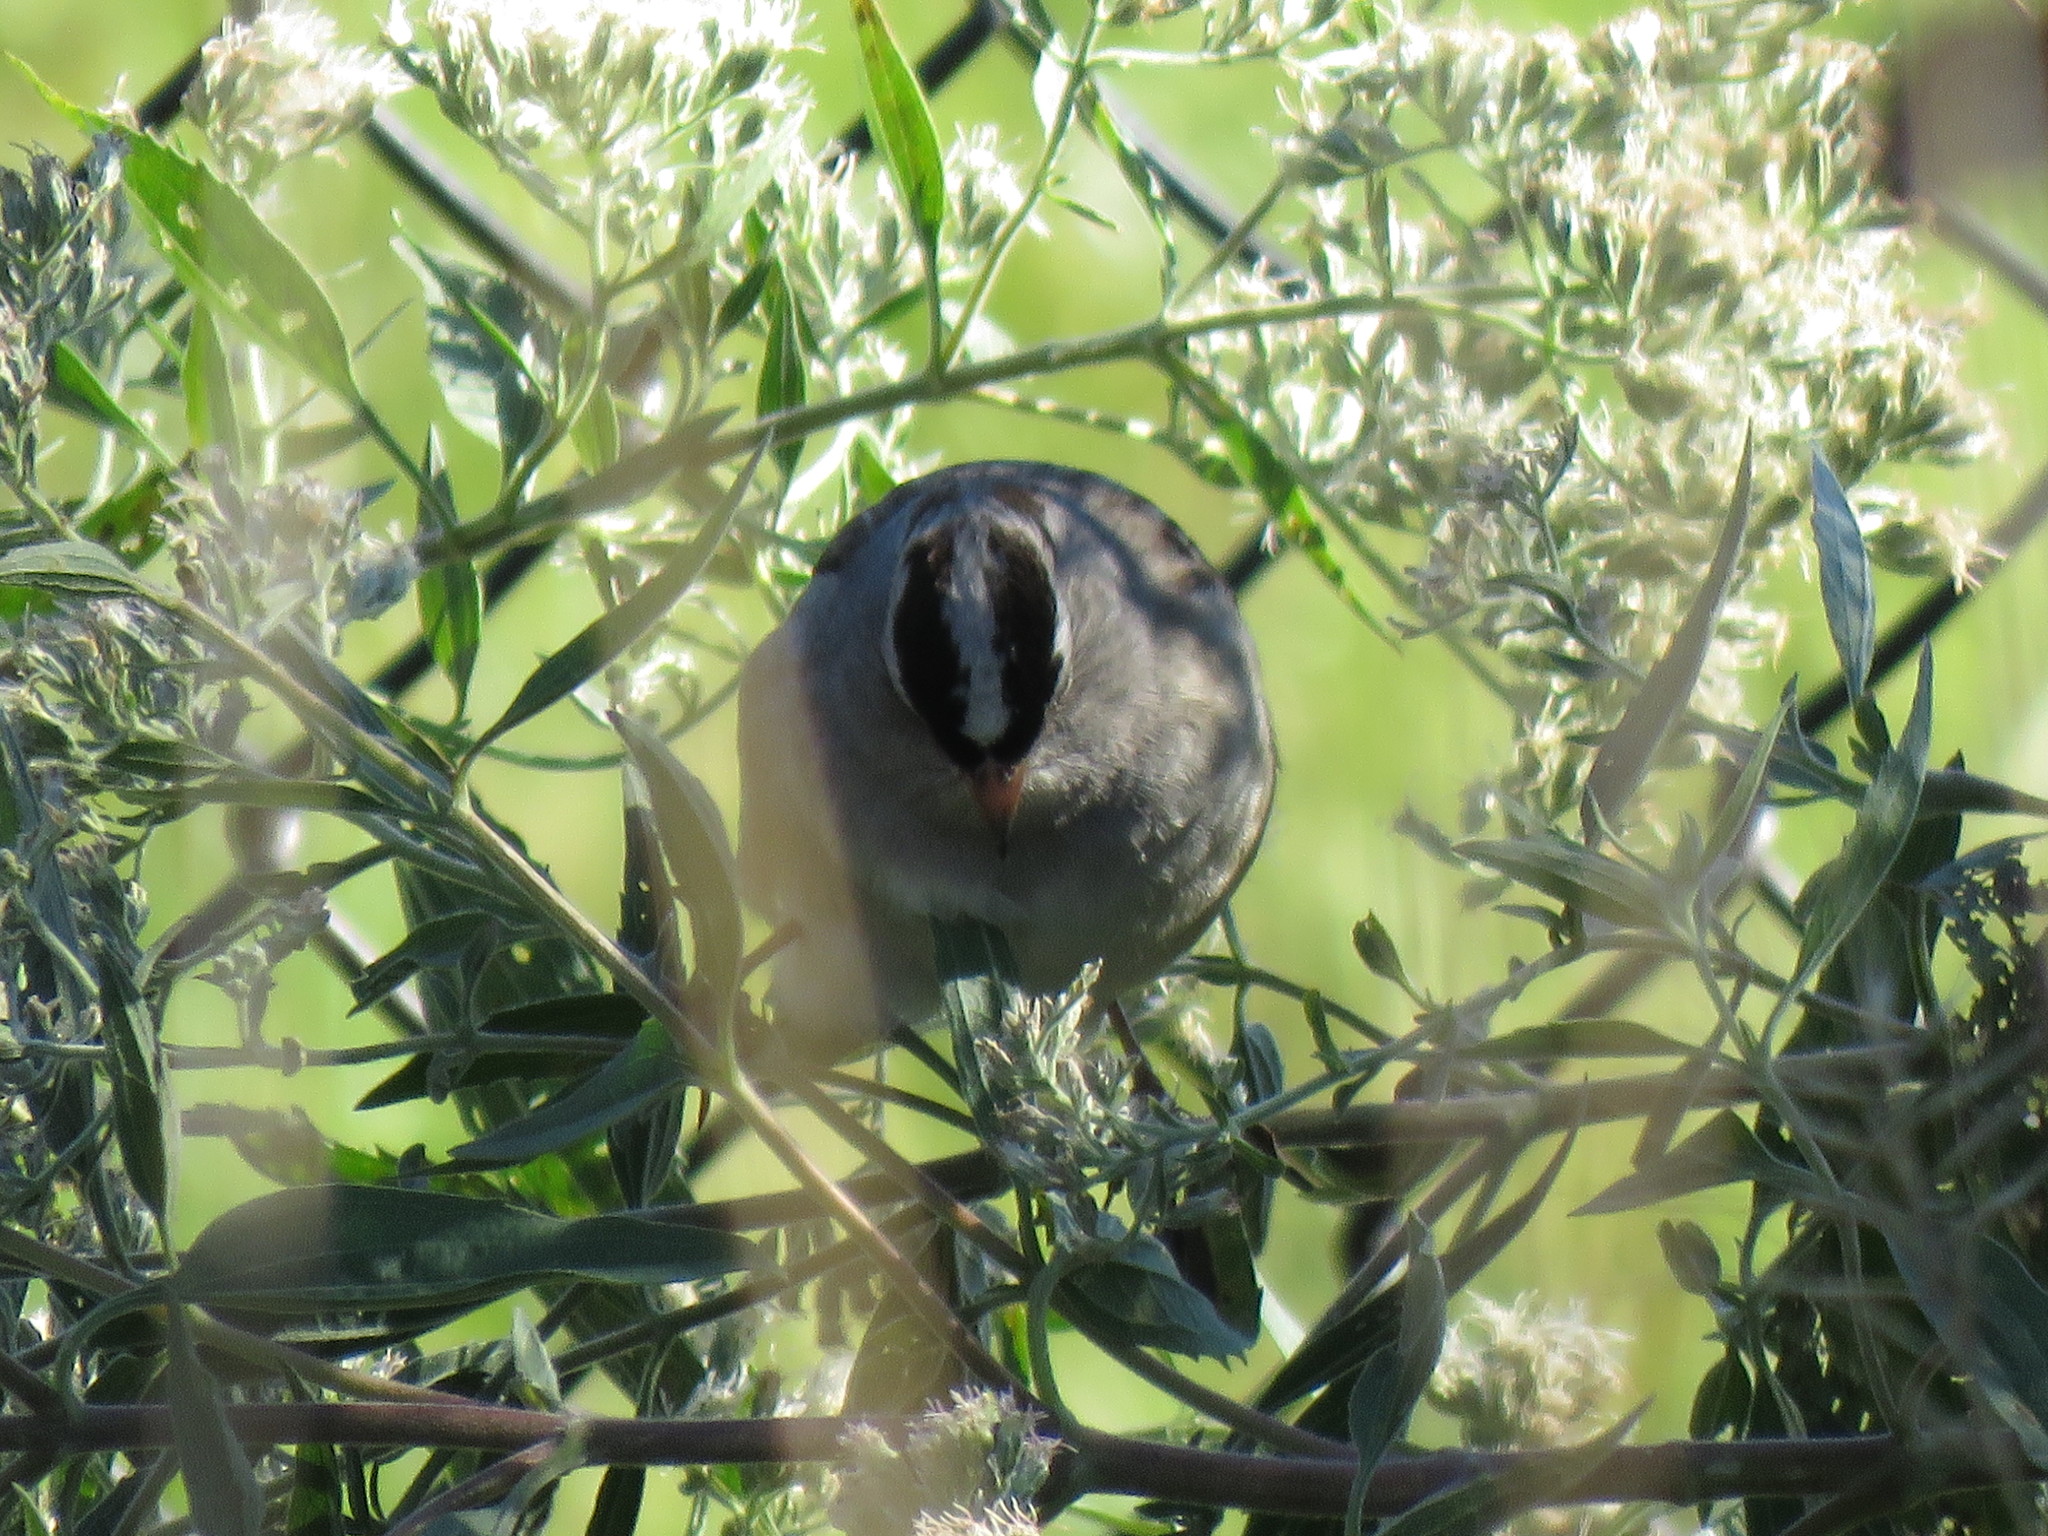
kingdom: Animalia
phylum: Chordata
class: Aves
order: Passeriformes
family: Passerellidae
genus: Zonotrichia
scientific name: Zonotrichia leucophrys
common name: White-crowned sparrow
